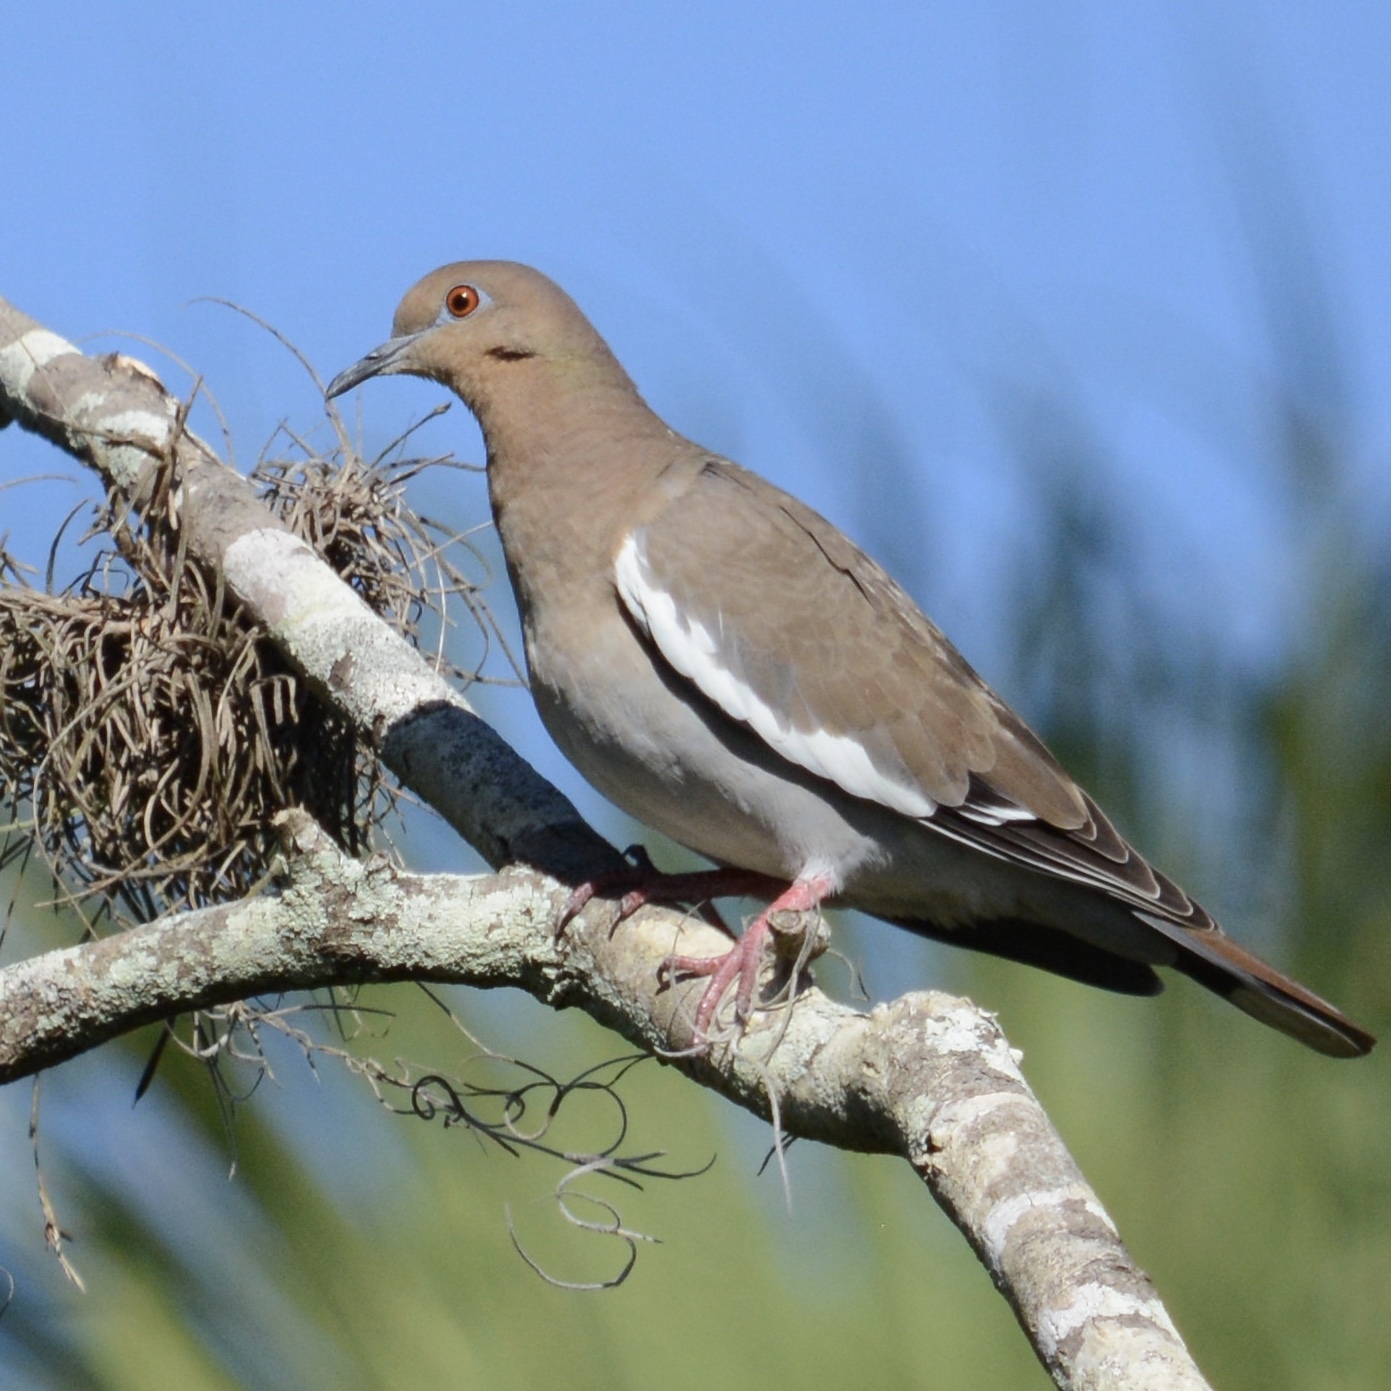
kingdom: Animalia
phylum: Chordata
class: Aves
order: Columbiformes
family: Columbidae
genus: Zenaida
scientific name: Zenaida asiatica
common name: White-winged dove
